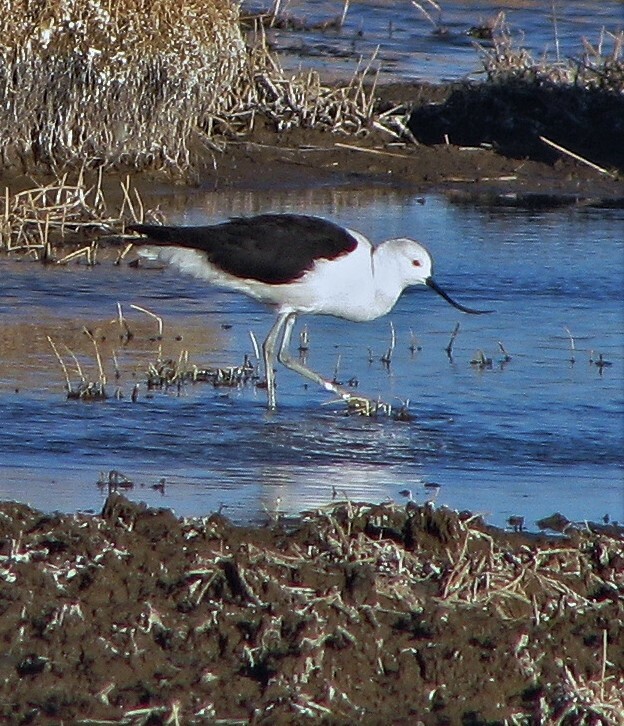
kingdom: Animalia
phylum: Chordata
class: Aves
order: Charadriiformes
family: Recurvirostridae
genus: Recurvirostra
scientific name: Recurvirostra andina
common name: Andean avocet
